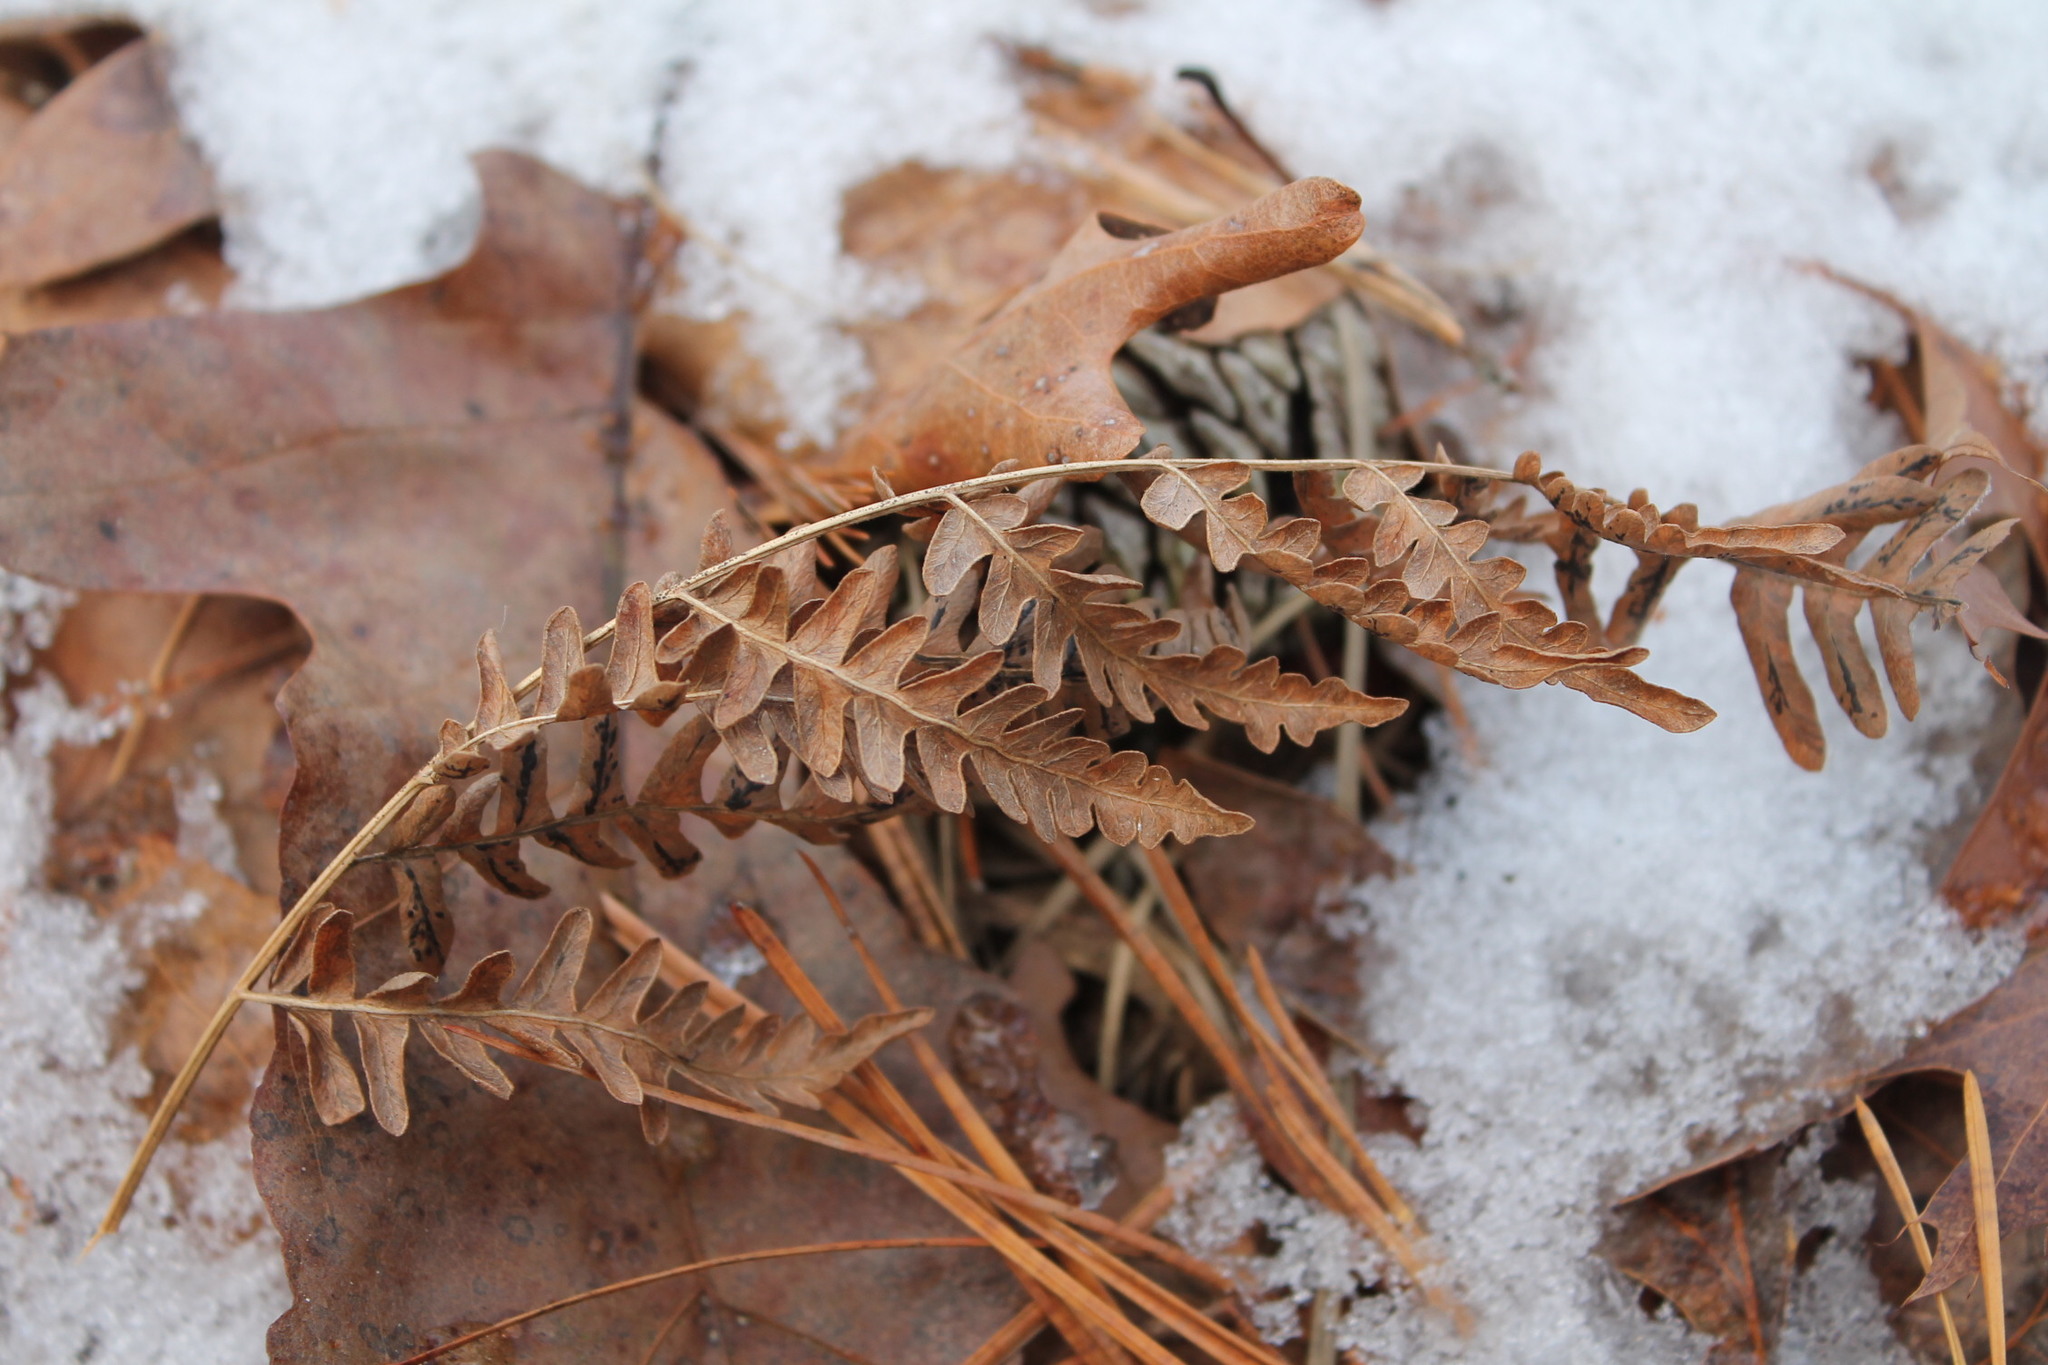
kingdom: Plantae
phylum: Tracheophyta
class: Polypodiopsida
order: Polypodiales
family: Dennstaedtiaceae
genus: Pteridium
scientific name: Pteridium aquilinum
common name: Bracken
